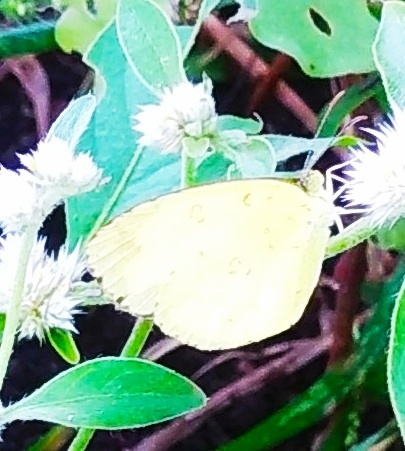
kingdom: Animalia
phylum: Arthropoda
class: Insecta
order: Lepidoptera
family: Pieridae
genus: Eurema
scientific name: Eurema hecabe
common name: Pale grass yellow
